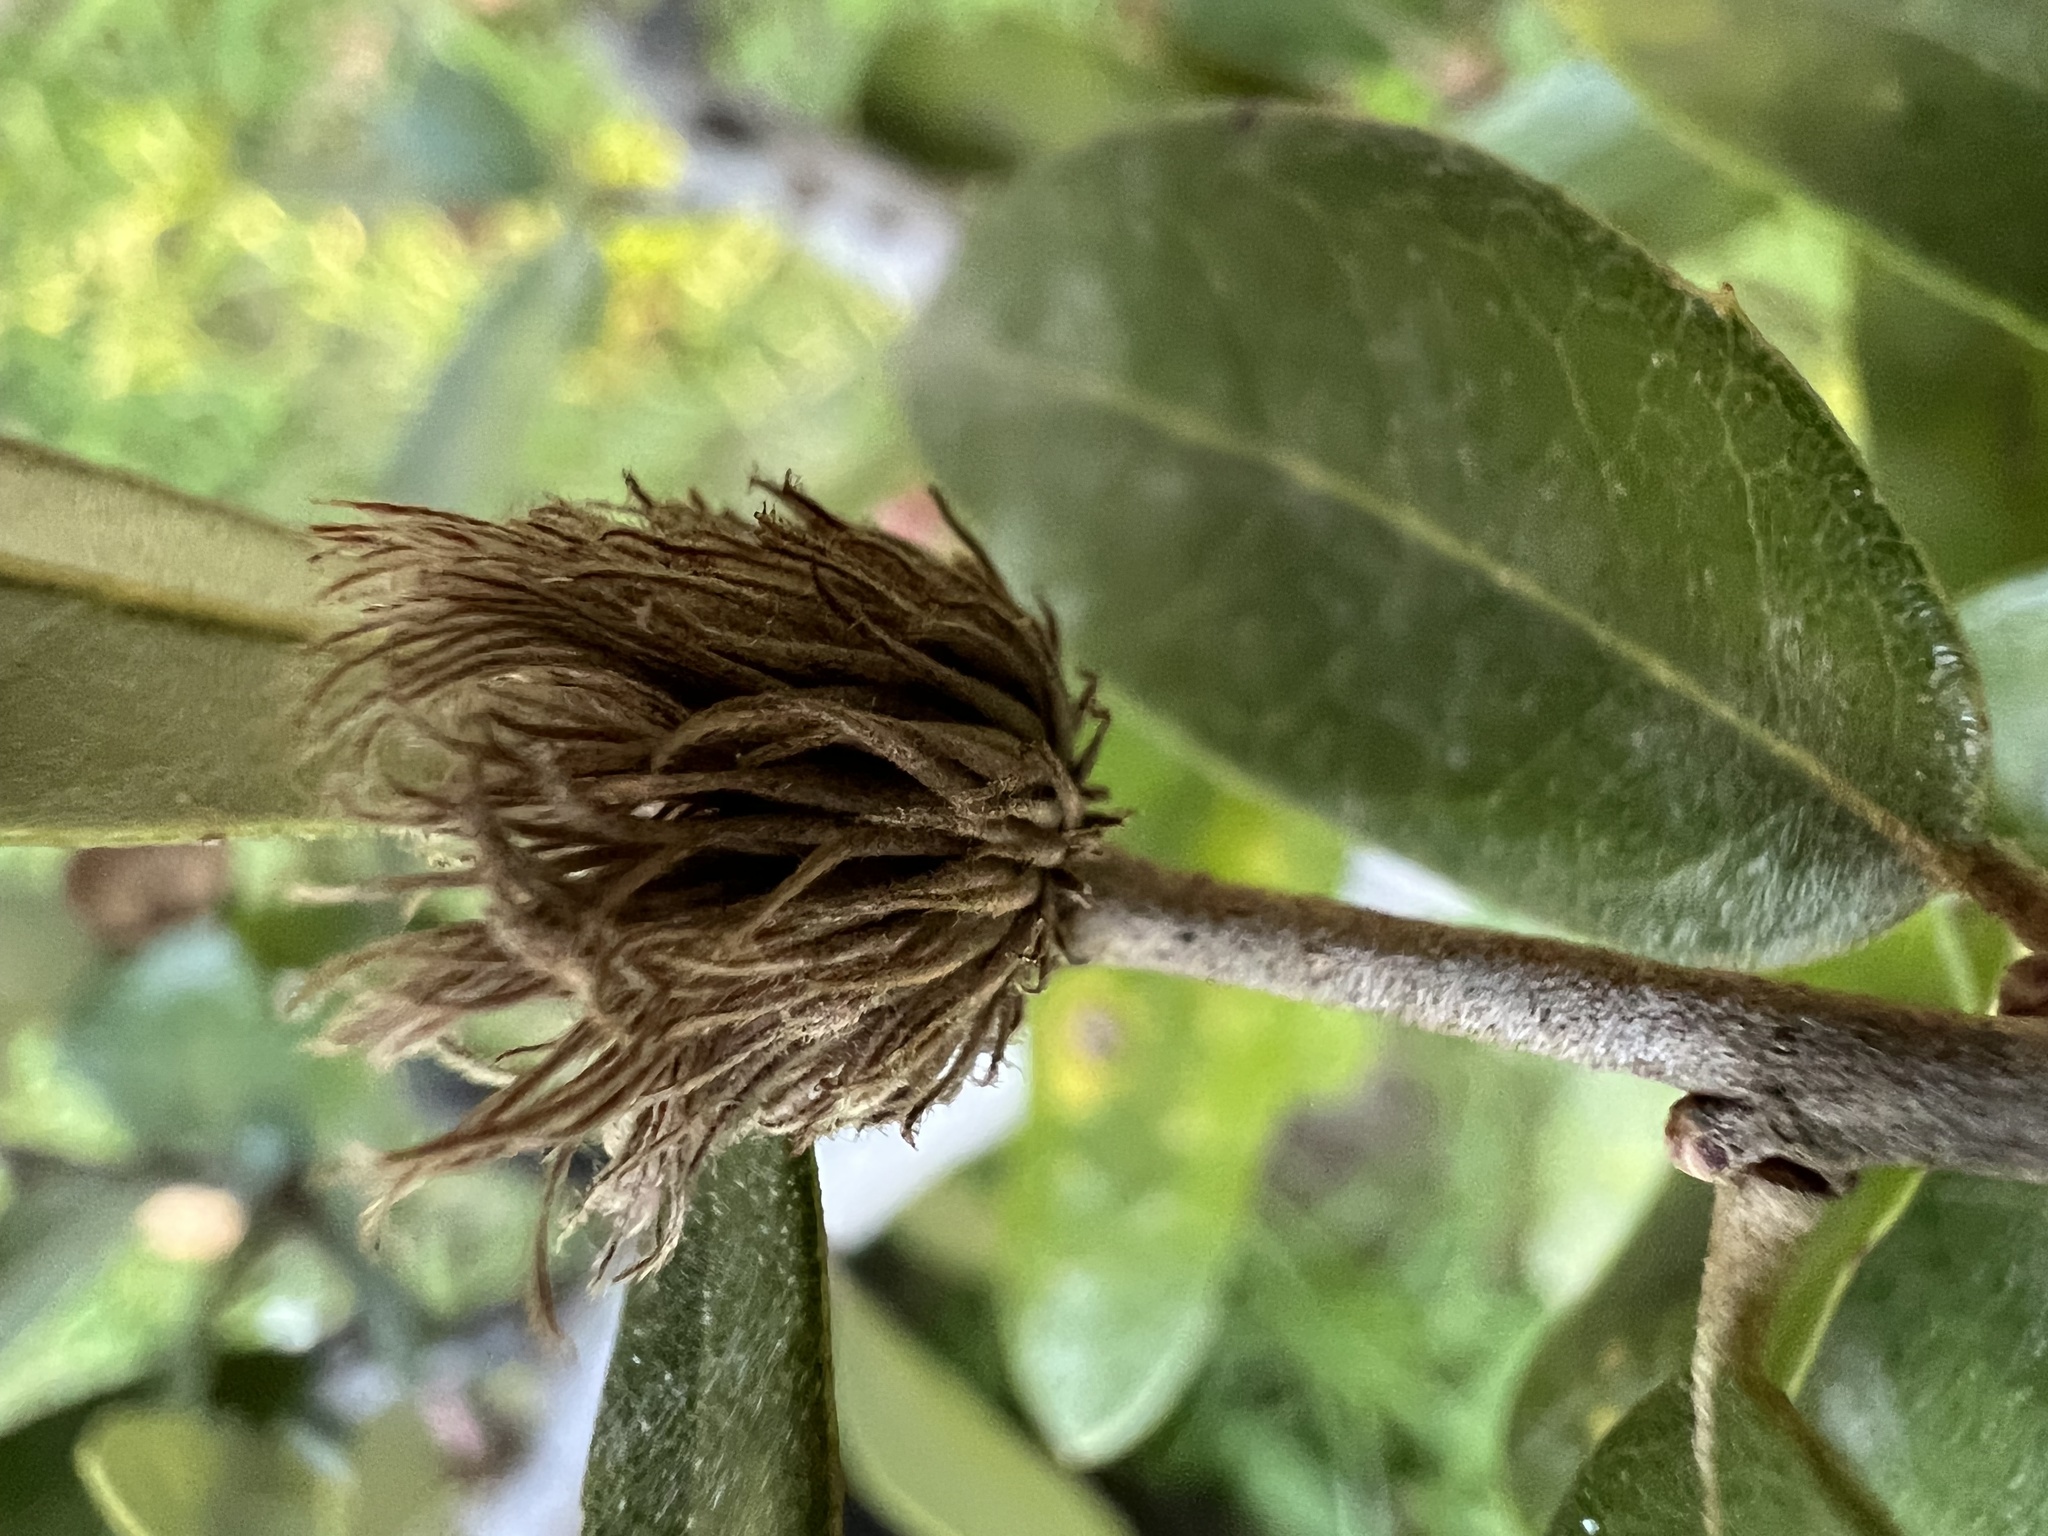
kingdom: Animalia
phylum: Arthropoda
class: Insecta
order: Hymenoptera
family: Cynipidae
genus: Andricus
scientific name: Andricus quercusfoliatus
